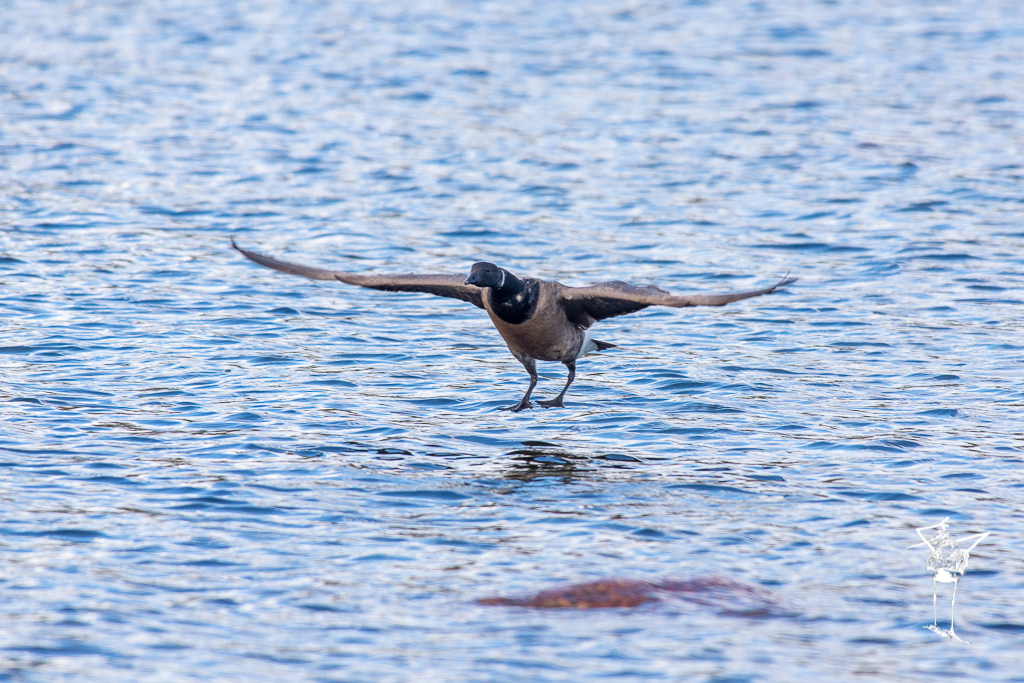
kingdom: Animalia
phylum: Chordata
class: Aves
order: Anseriformes
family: Anatidae
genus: Branta
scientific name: Branta bernicla
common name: Brant goose
